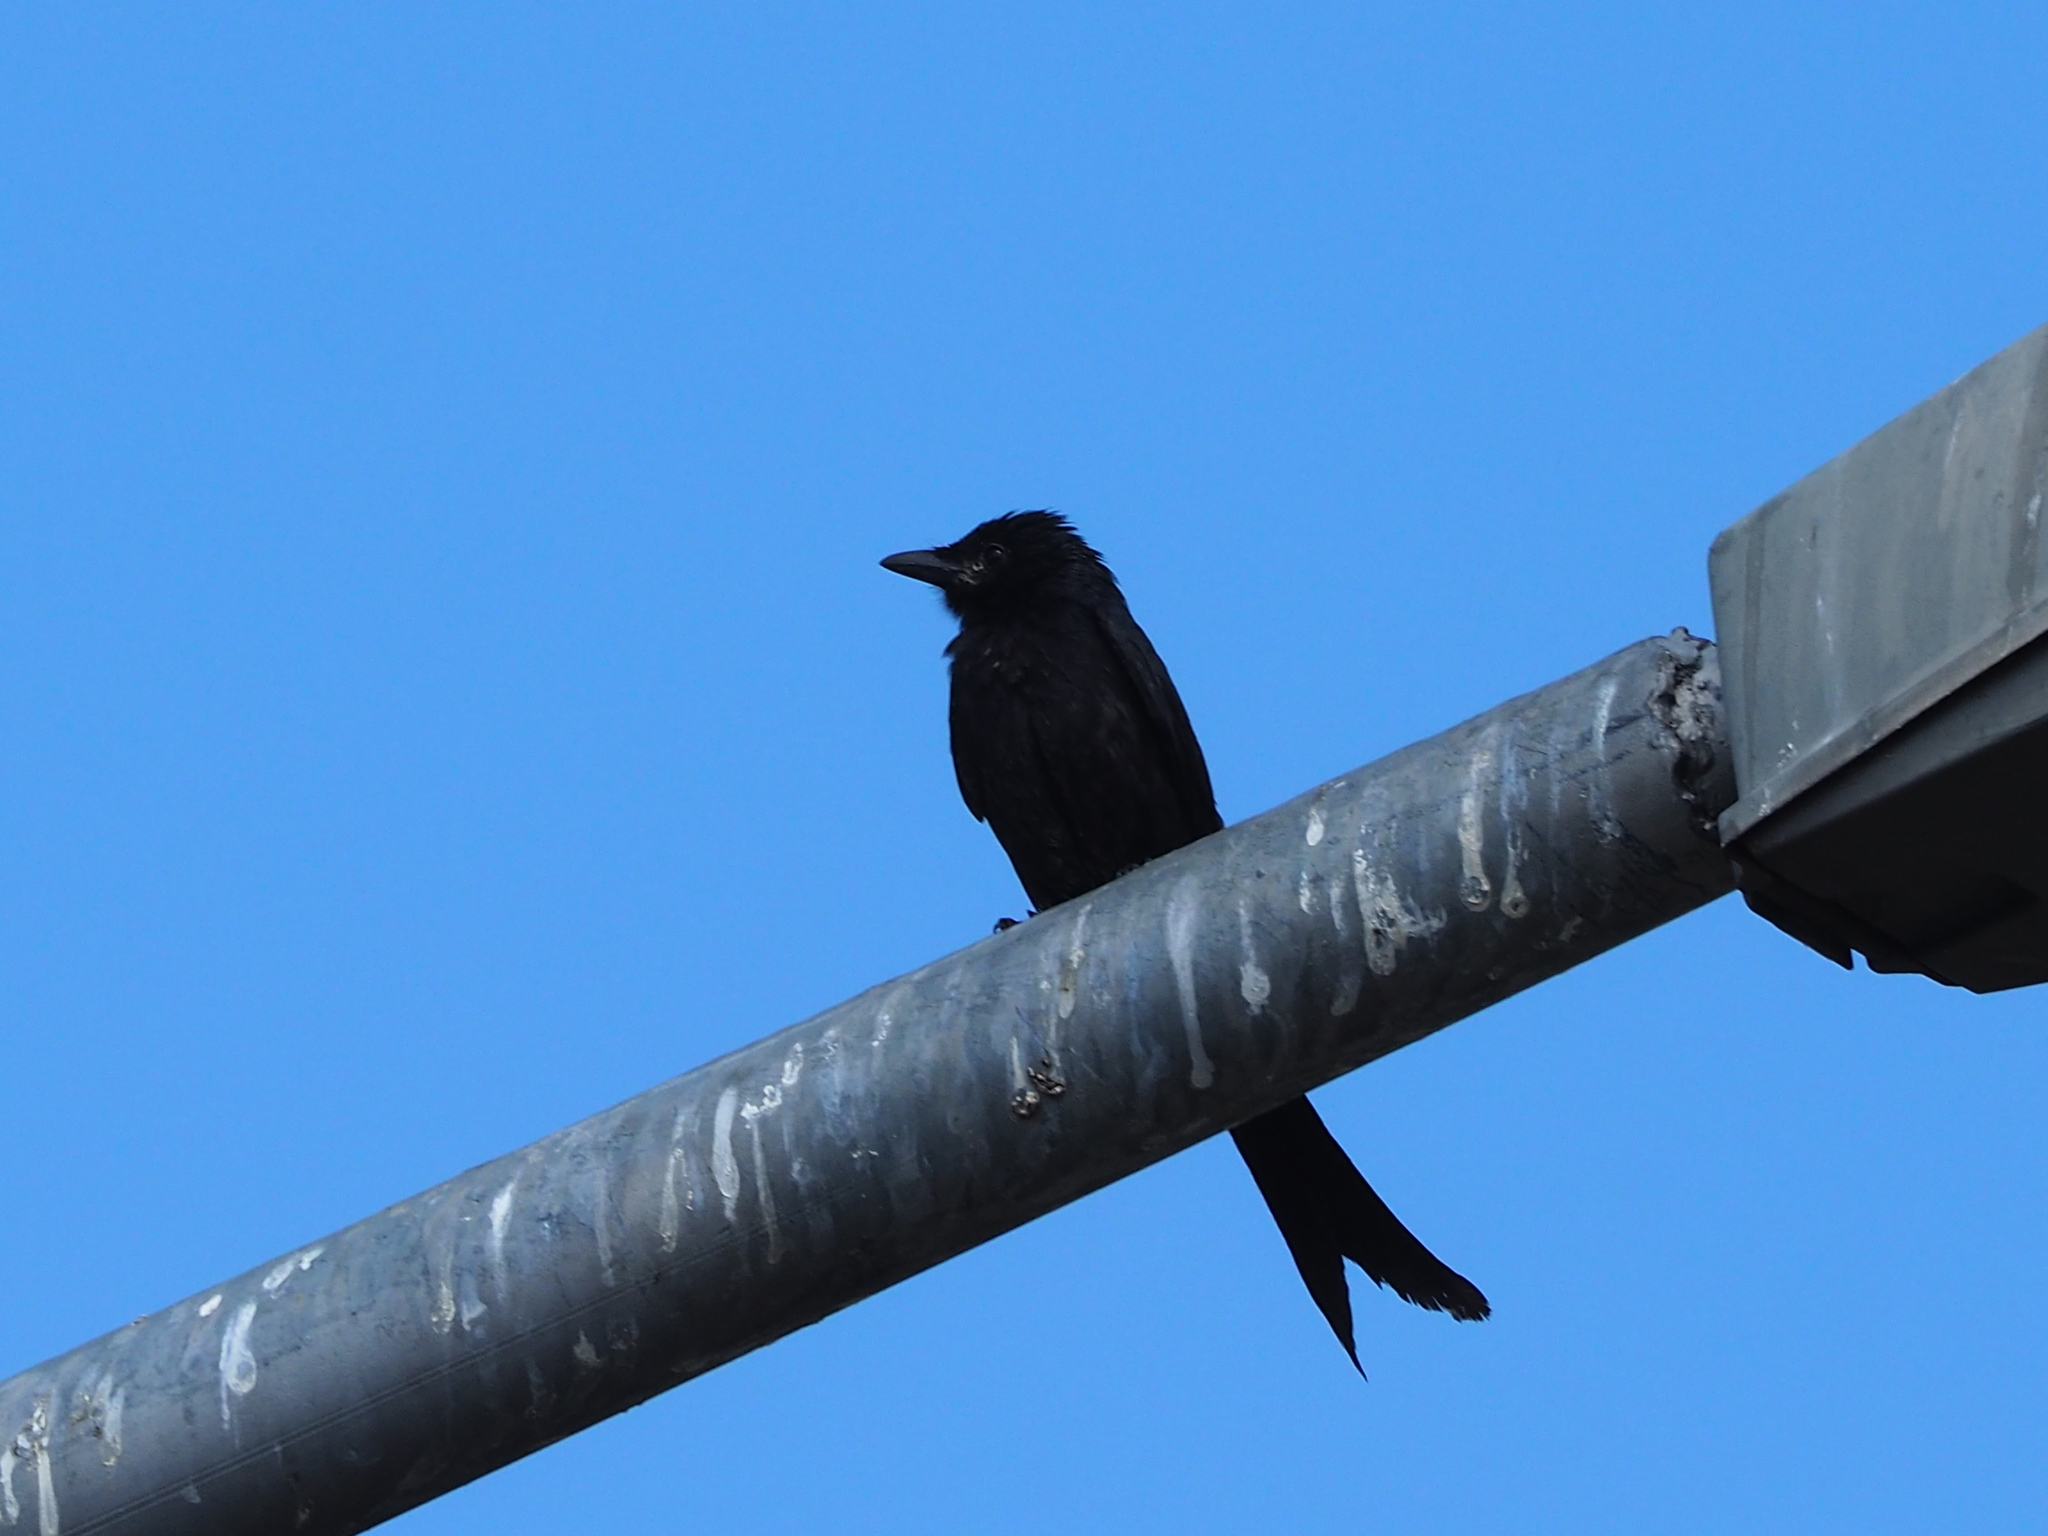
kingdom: Animalia
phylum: Chordata
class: Aves
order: Passeriformes
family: Dicruridae
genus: Dicrurus
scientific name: Dicrurus macrocercus
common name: Black drongo
